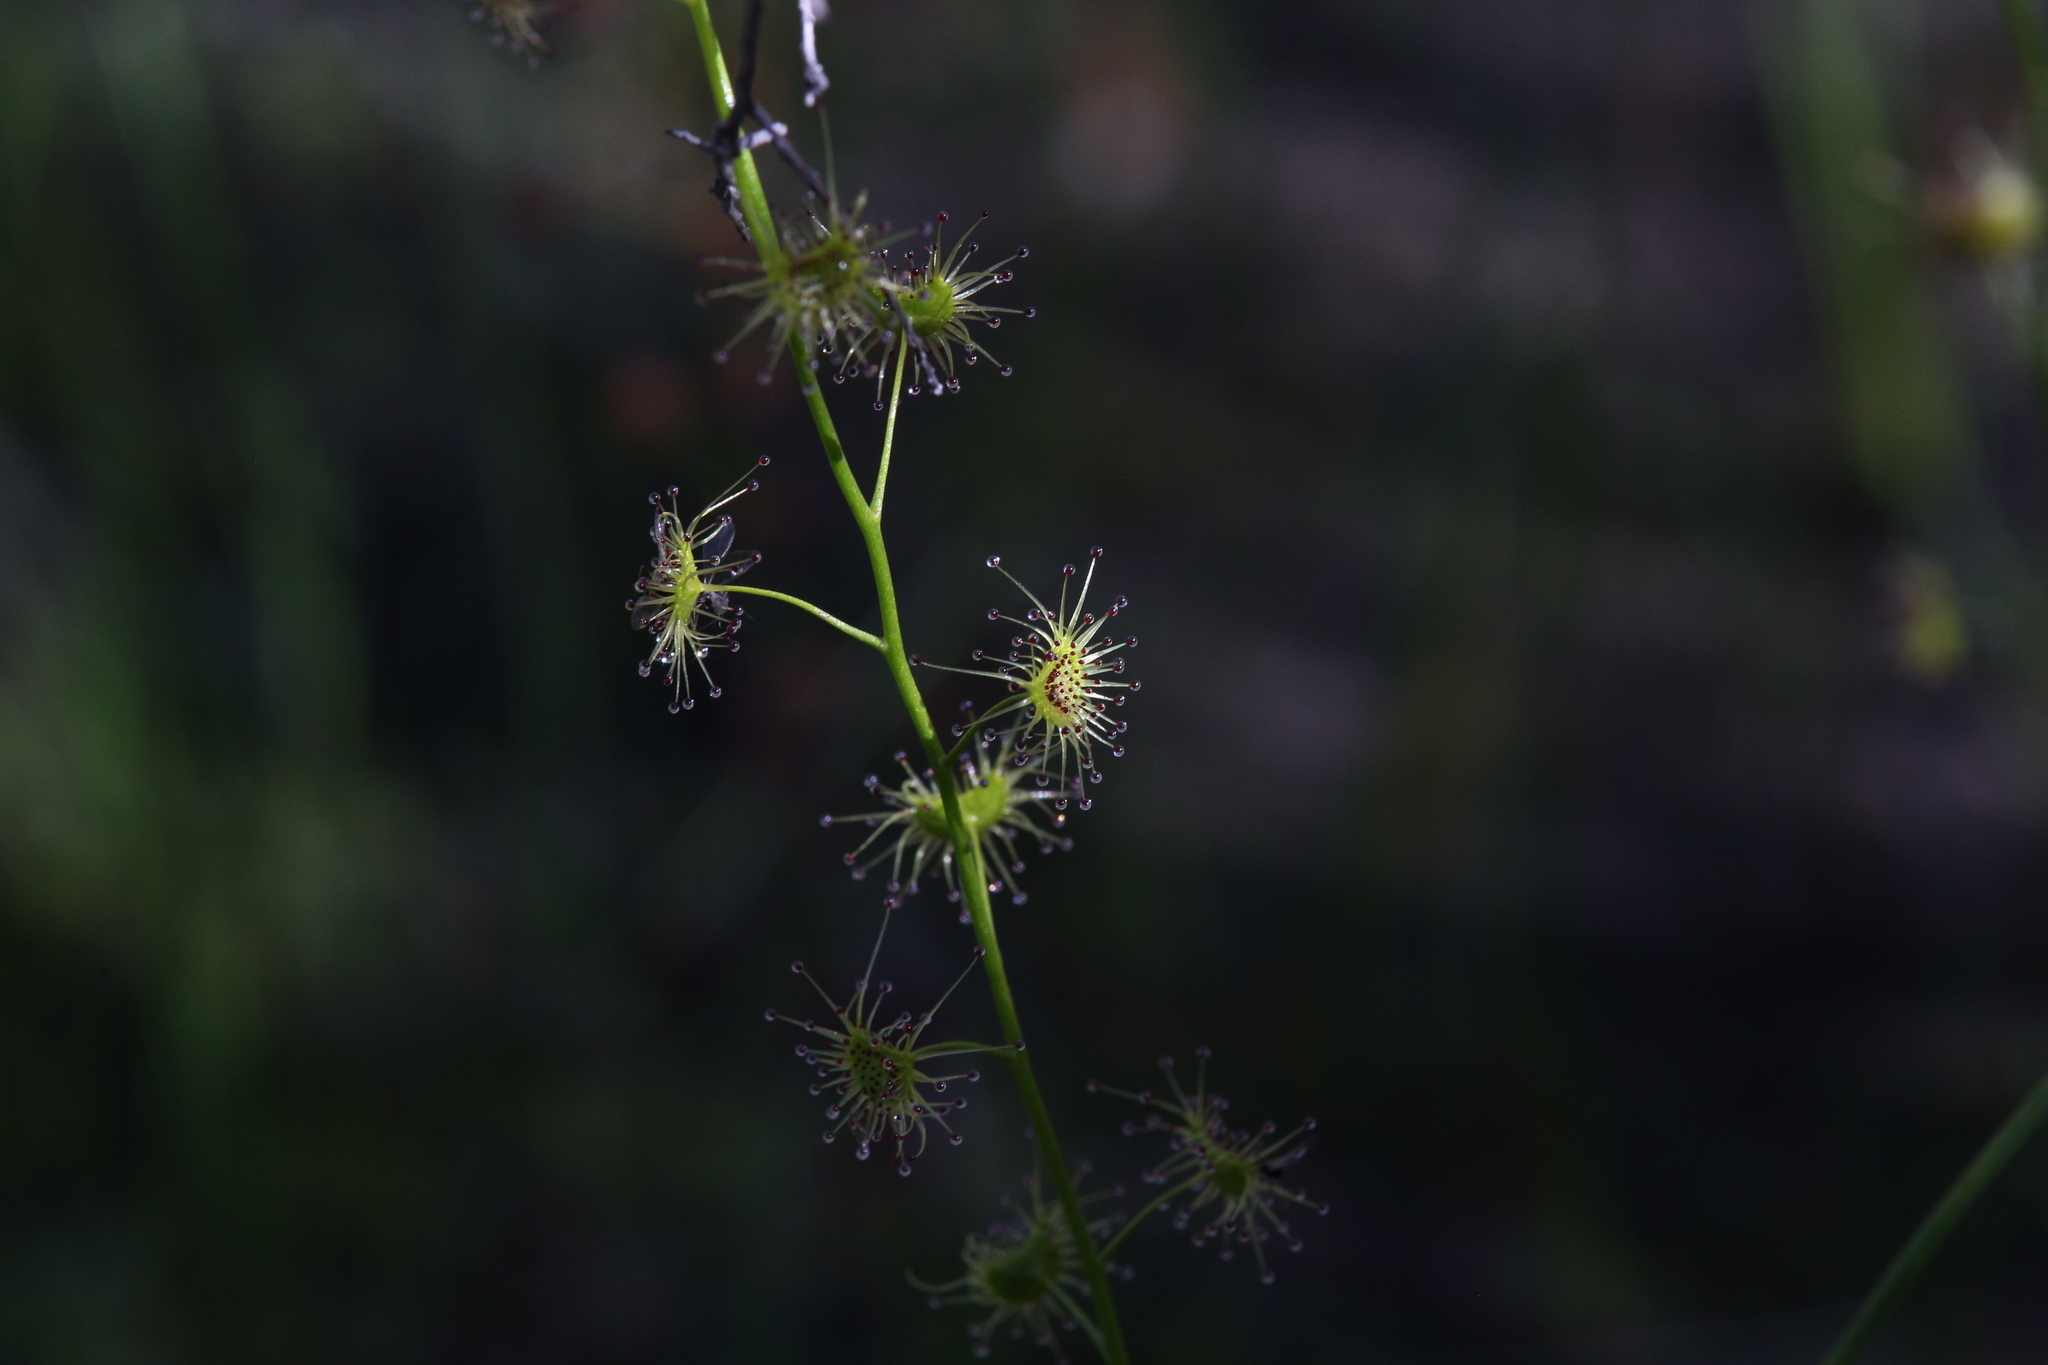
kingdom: Plantae
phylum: Tracheophyta
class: Magnoliopsida
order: Caryophyllales
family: Droseraceae
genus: Drosera
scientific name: Drosera heterophylla
